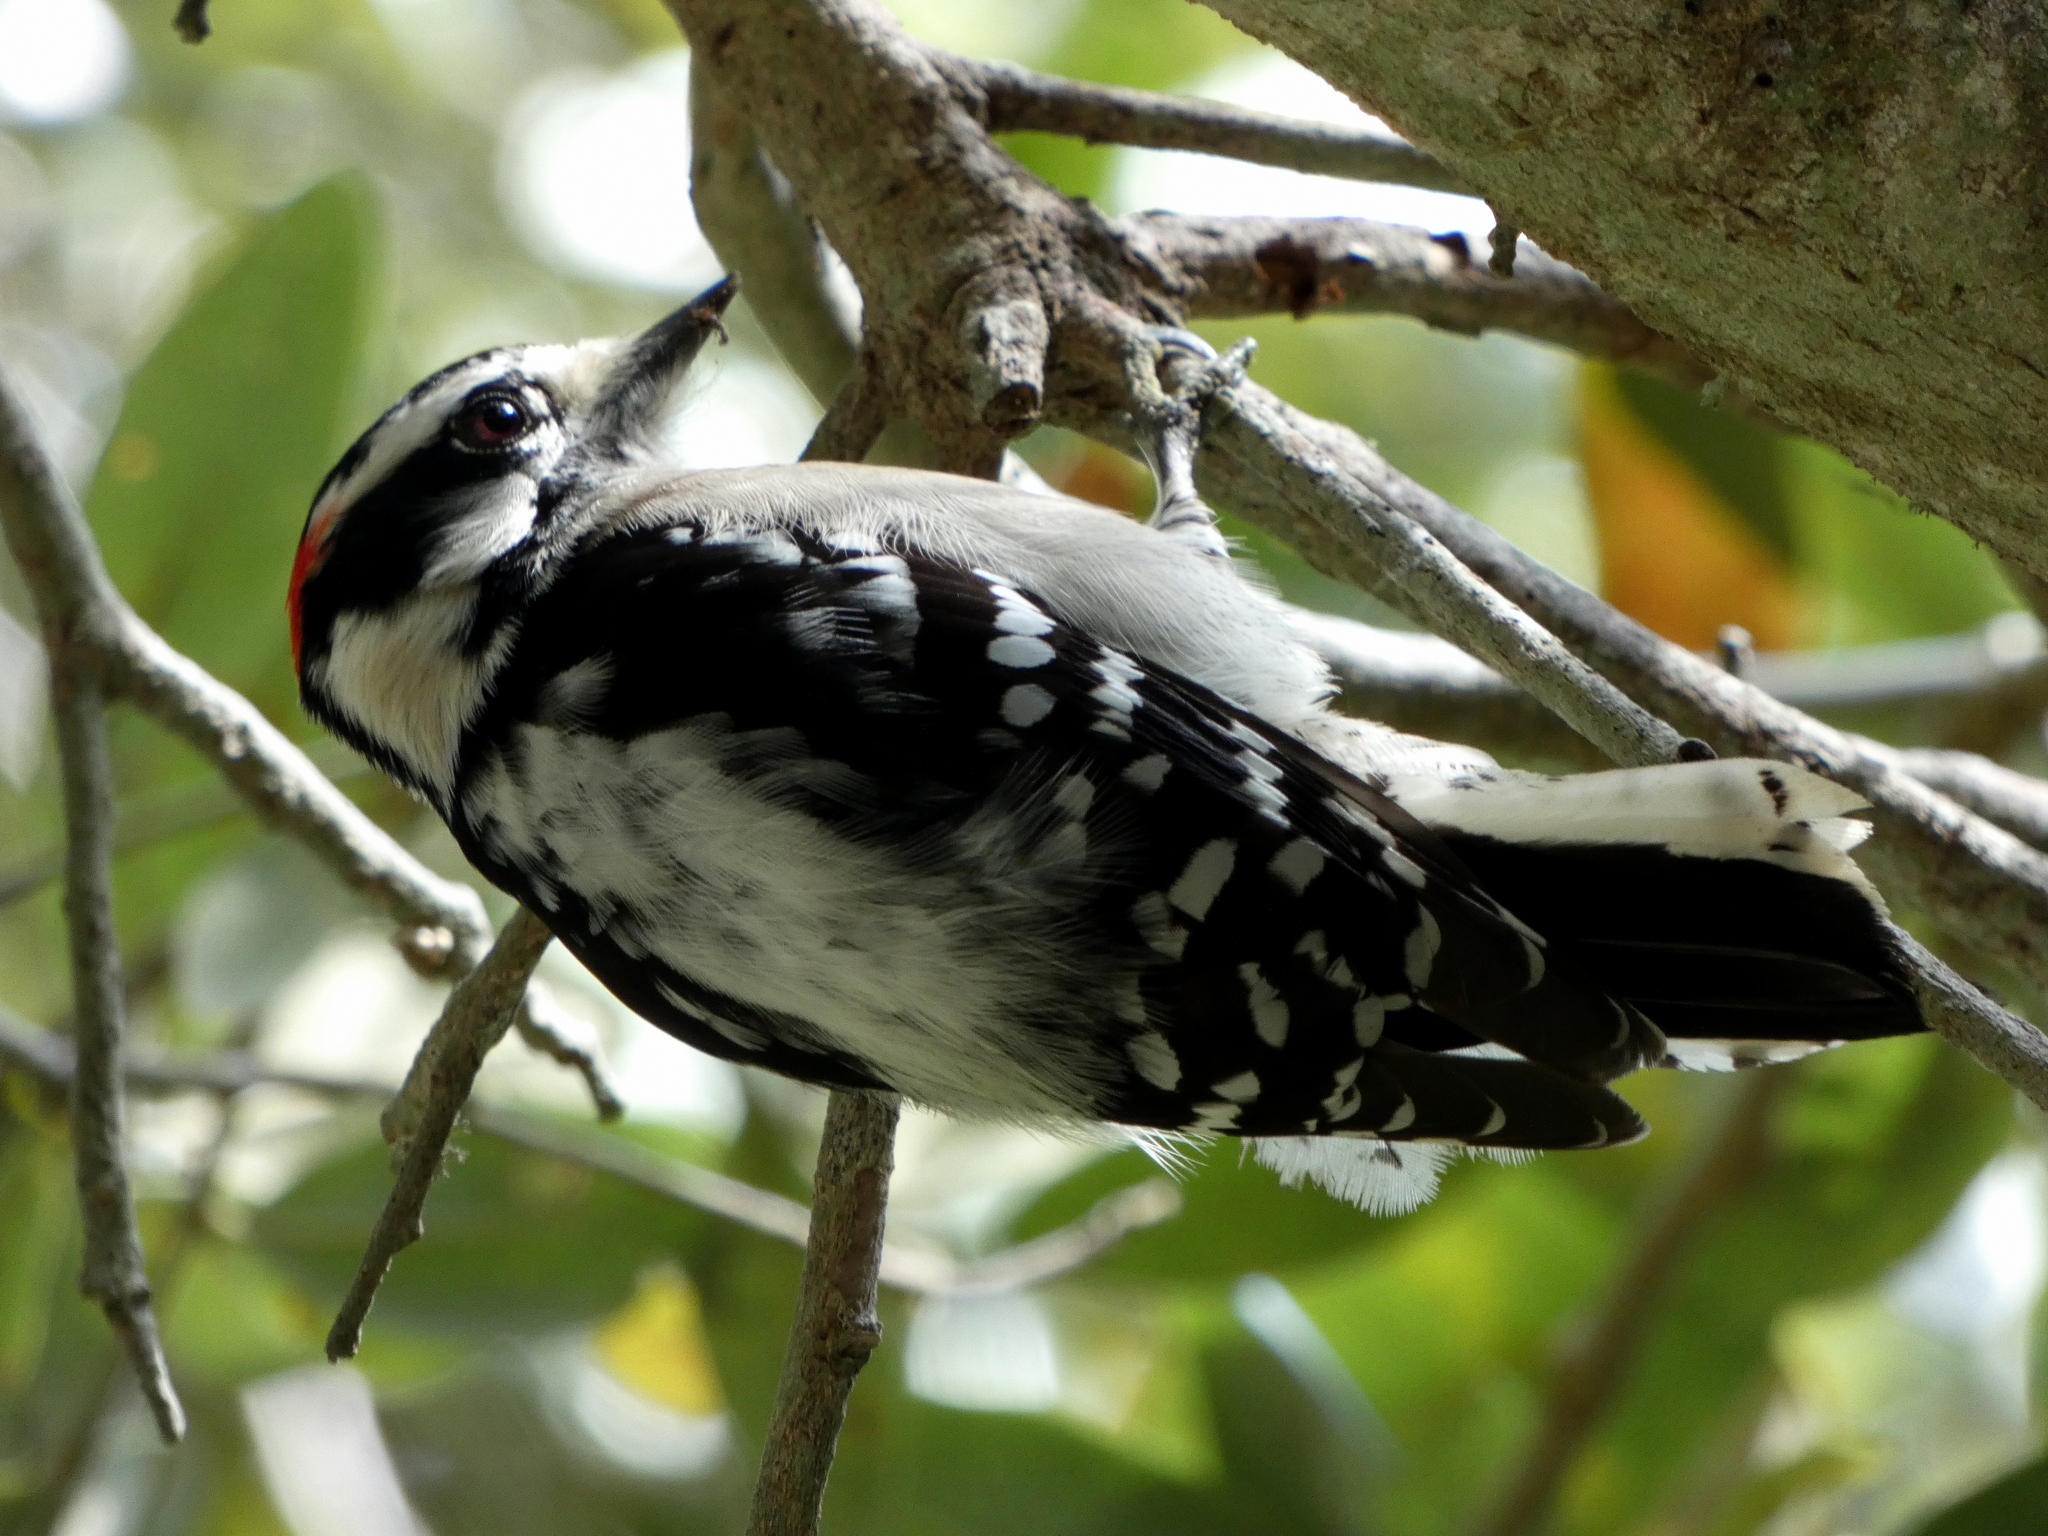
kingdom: Animalia
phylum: Chordata
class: Aves
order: Piciformes
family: Picidae
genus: Dryobates
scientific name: Dryobates pubescens
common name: Downy woodpecker
